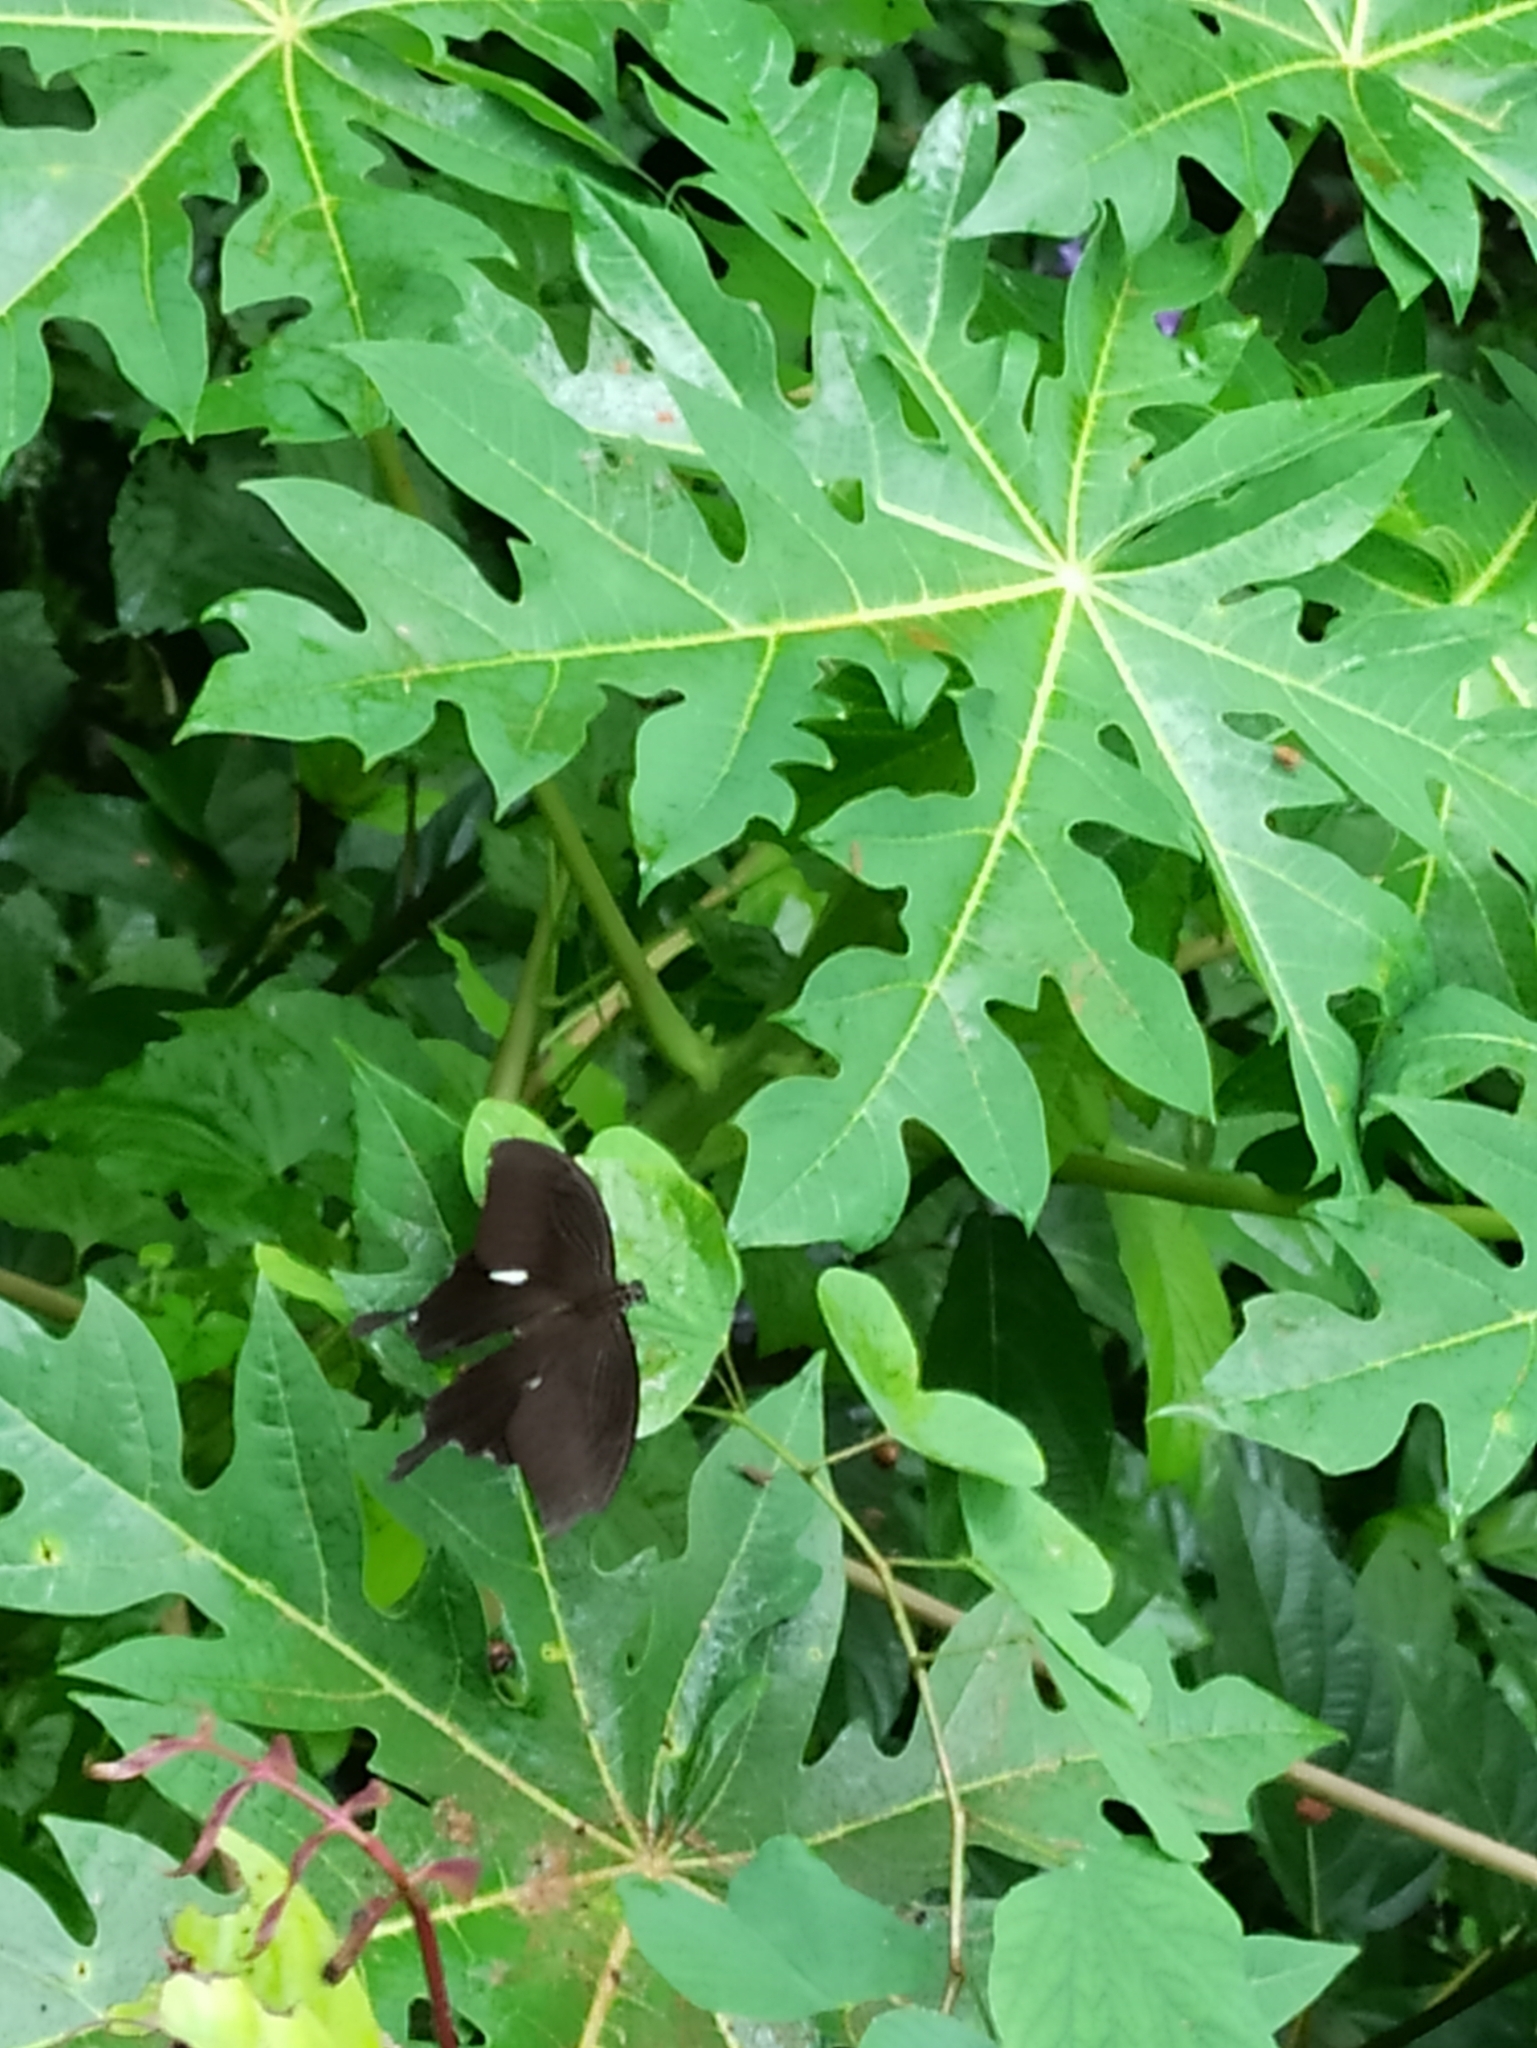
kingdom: Animalia
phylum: Arthropoda
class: Insecta
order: Lepidoptera
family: Papilionidae
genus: Papilio
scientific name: Papilio helenus
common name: Red helen
